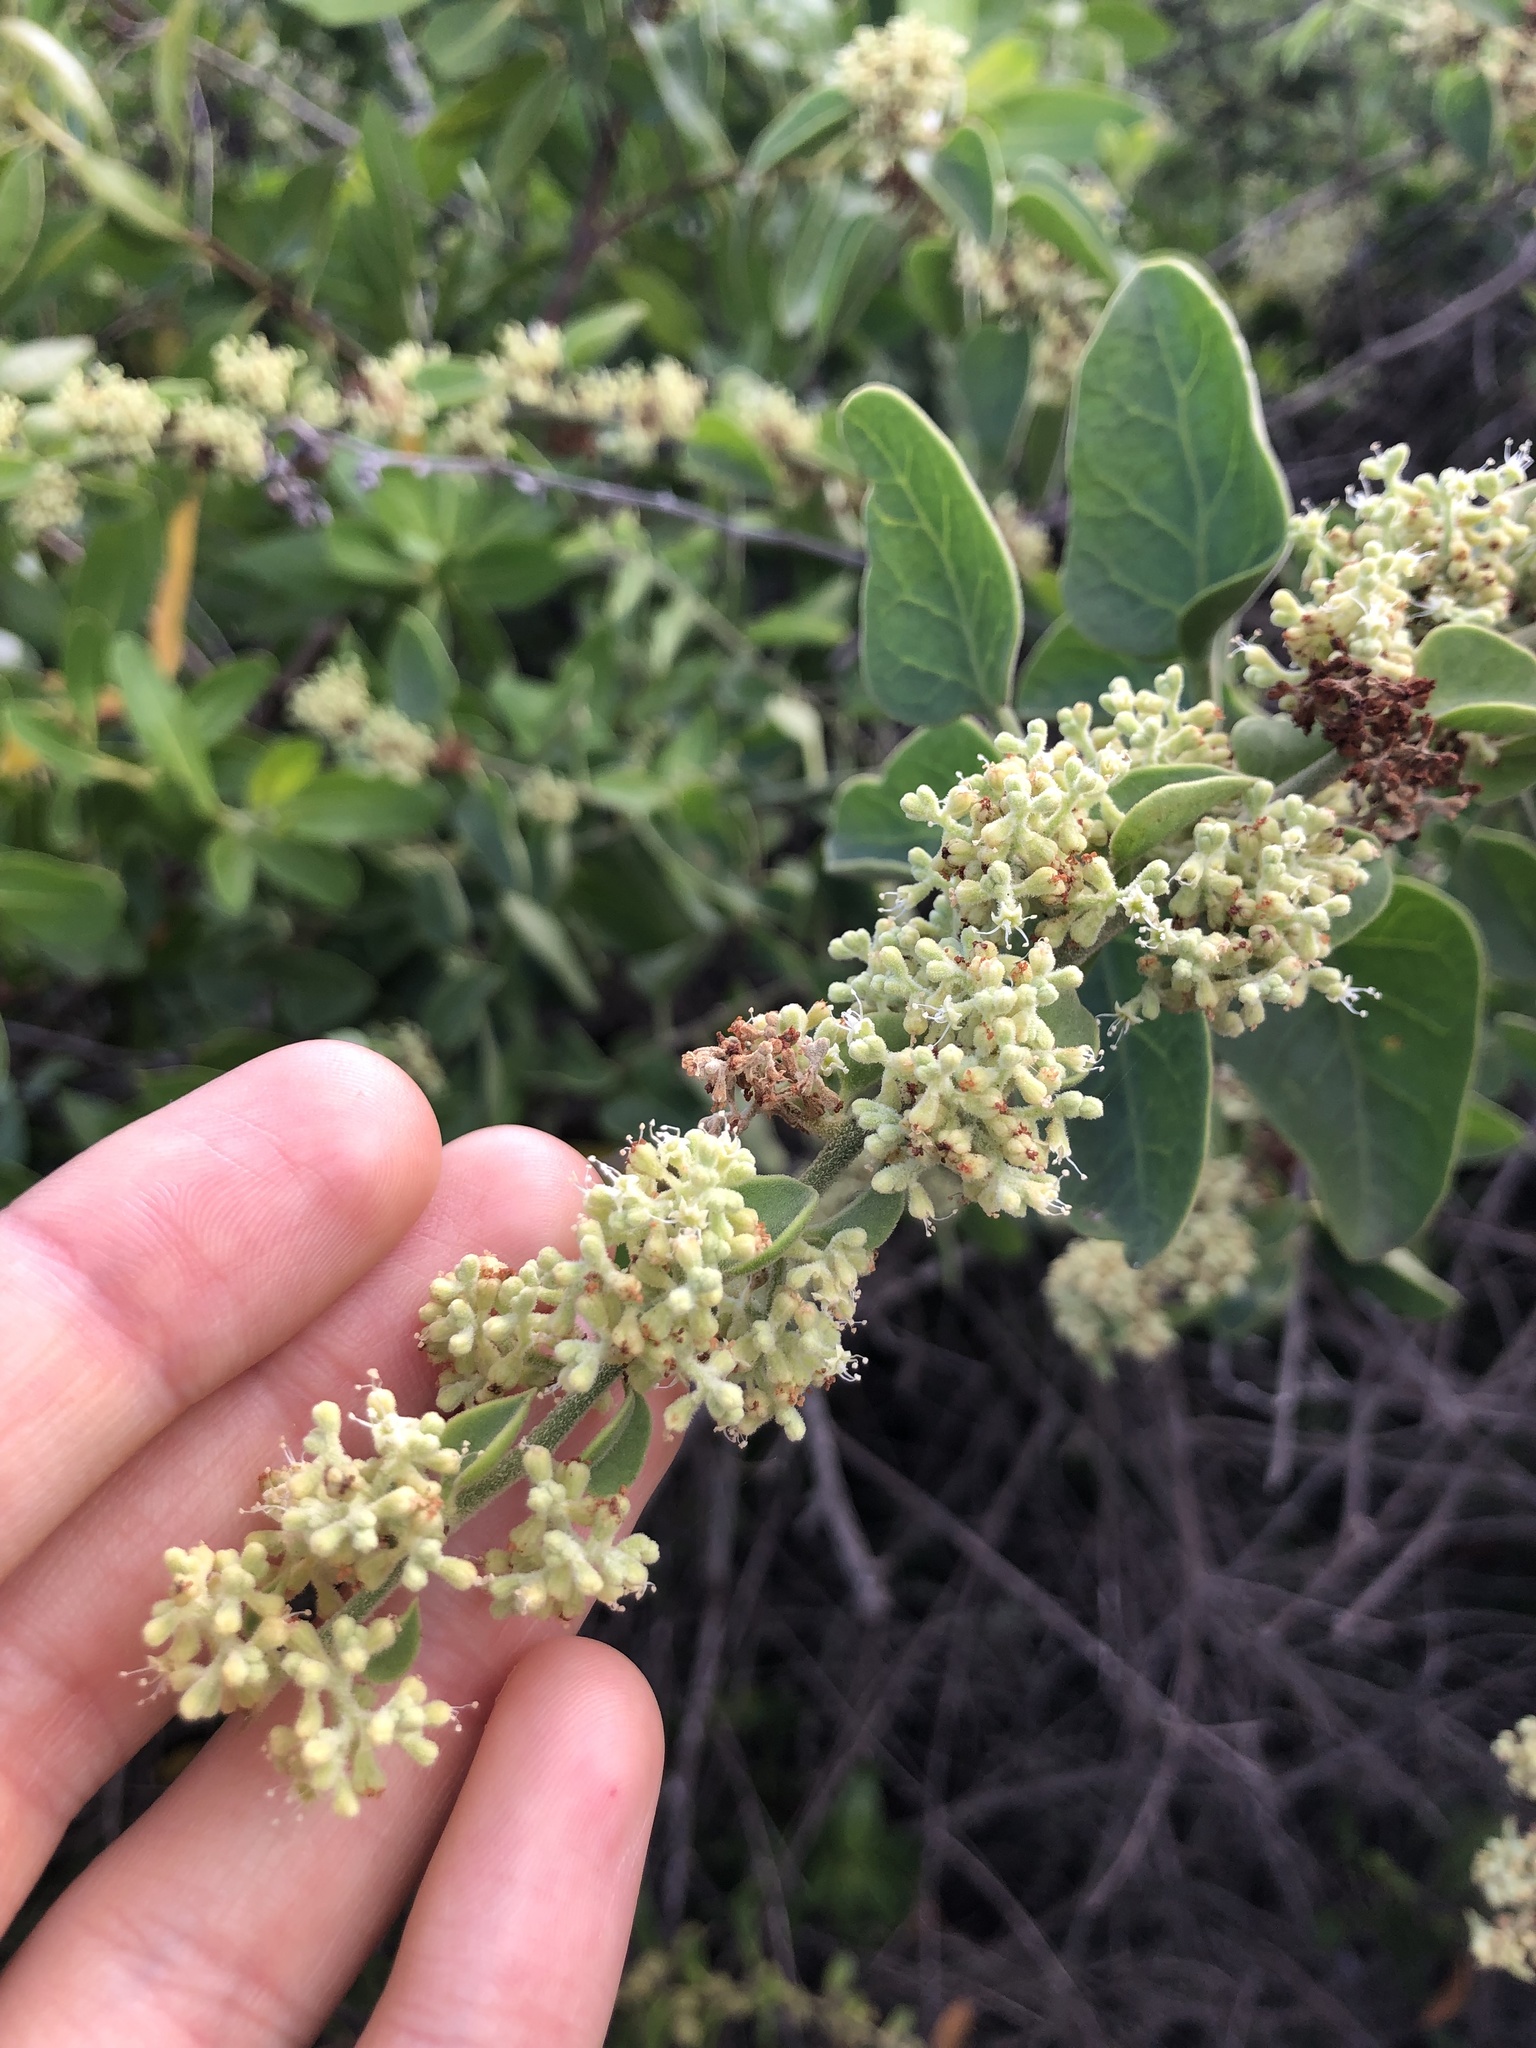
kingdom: Plantae
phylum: Tracheophyta
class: Magnoliopsida
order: Caryophyllales
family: Nyctaginaceae
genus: Cryptocarpus
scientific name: Cryptocarpus pyriformis
